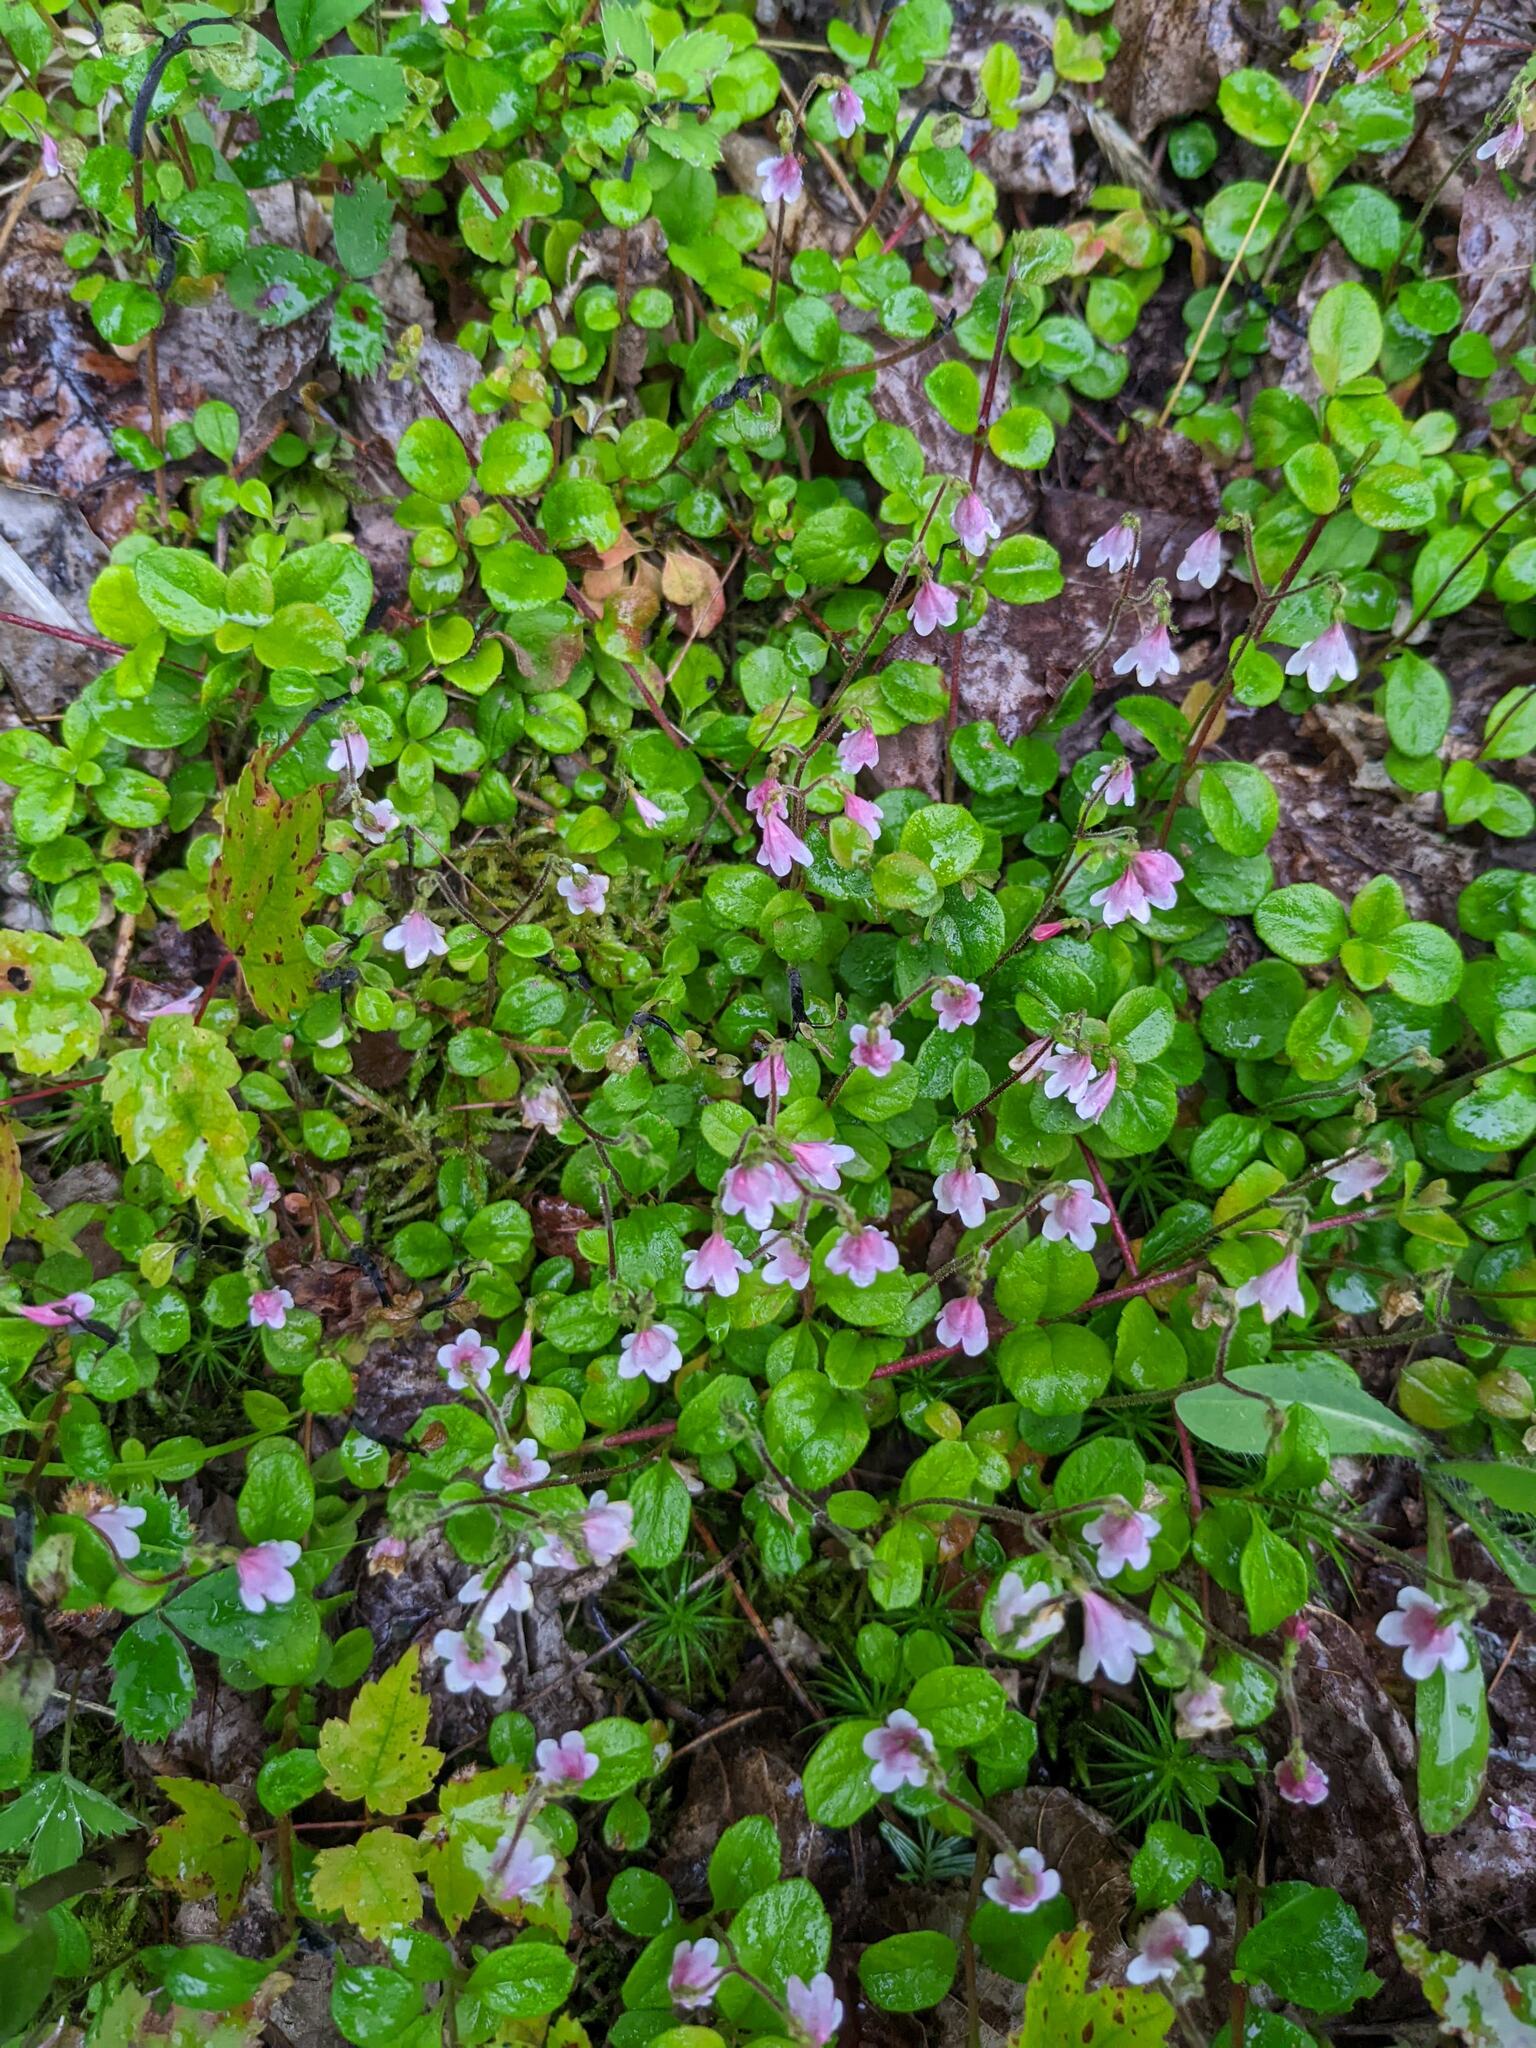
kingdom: Plantae
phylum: Tracheophyta
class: Magnoliopsida
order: Dipsacales
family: Caprifoliaceae
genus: Linnaea
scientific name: Linnaea borealis
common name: Twinflower
